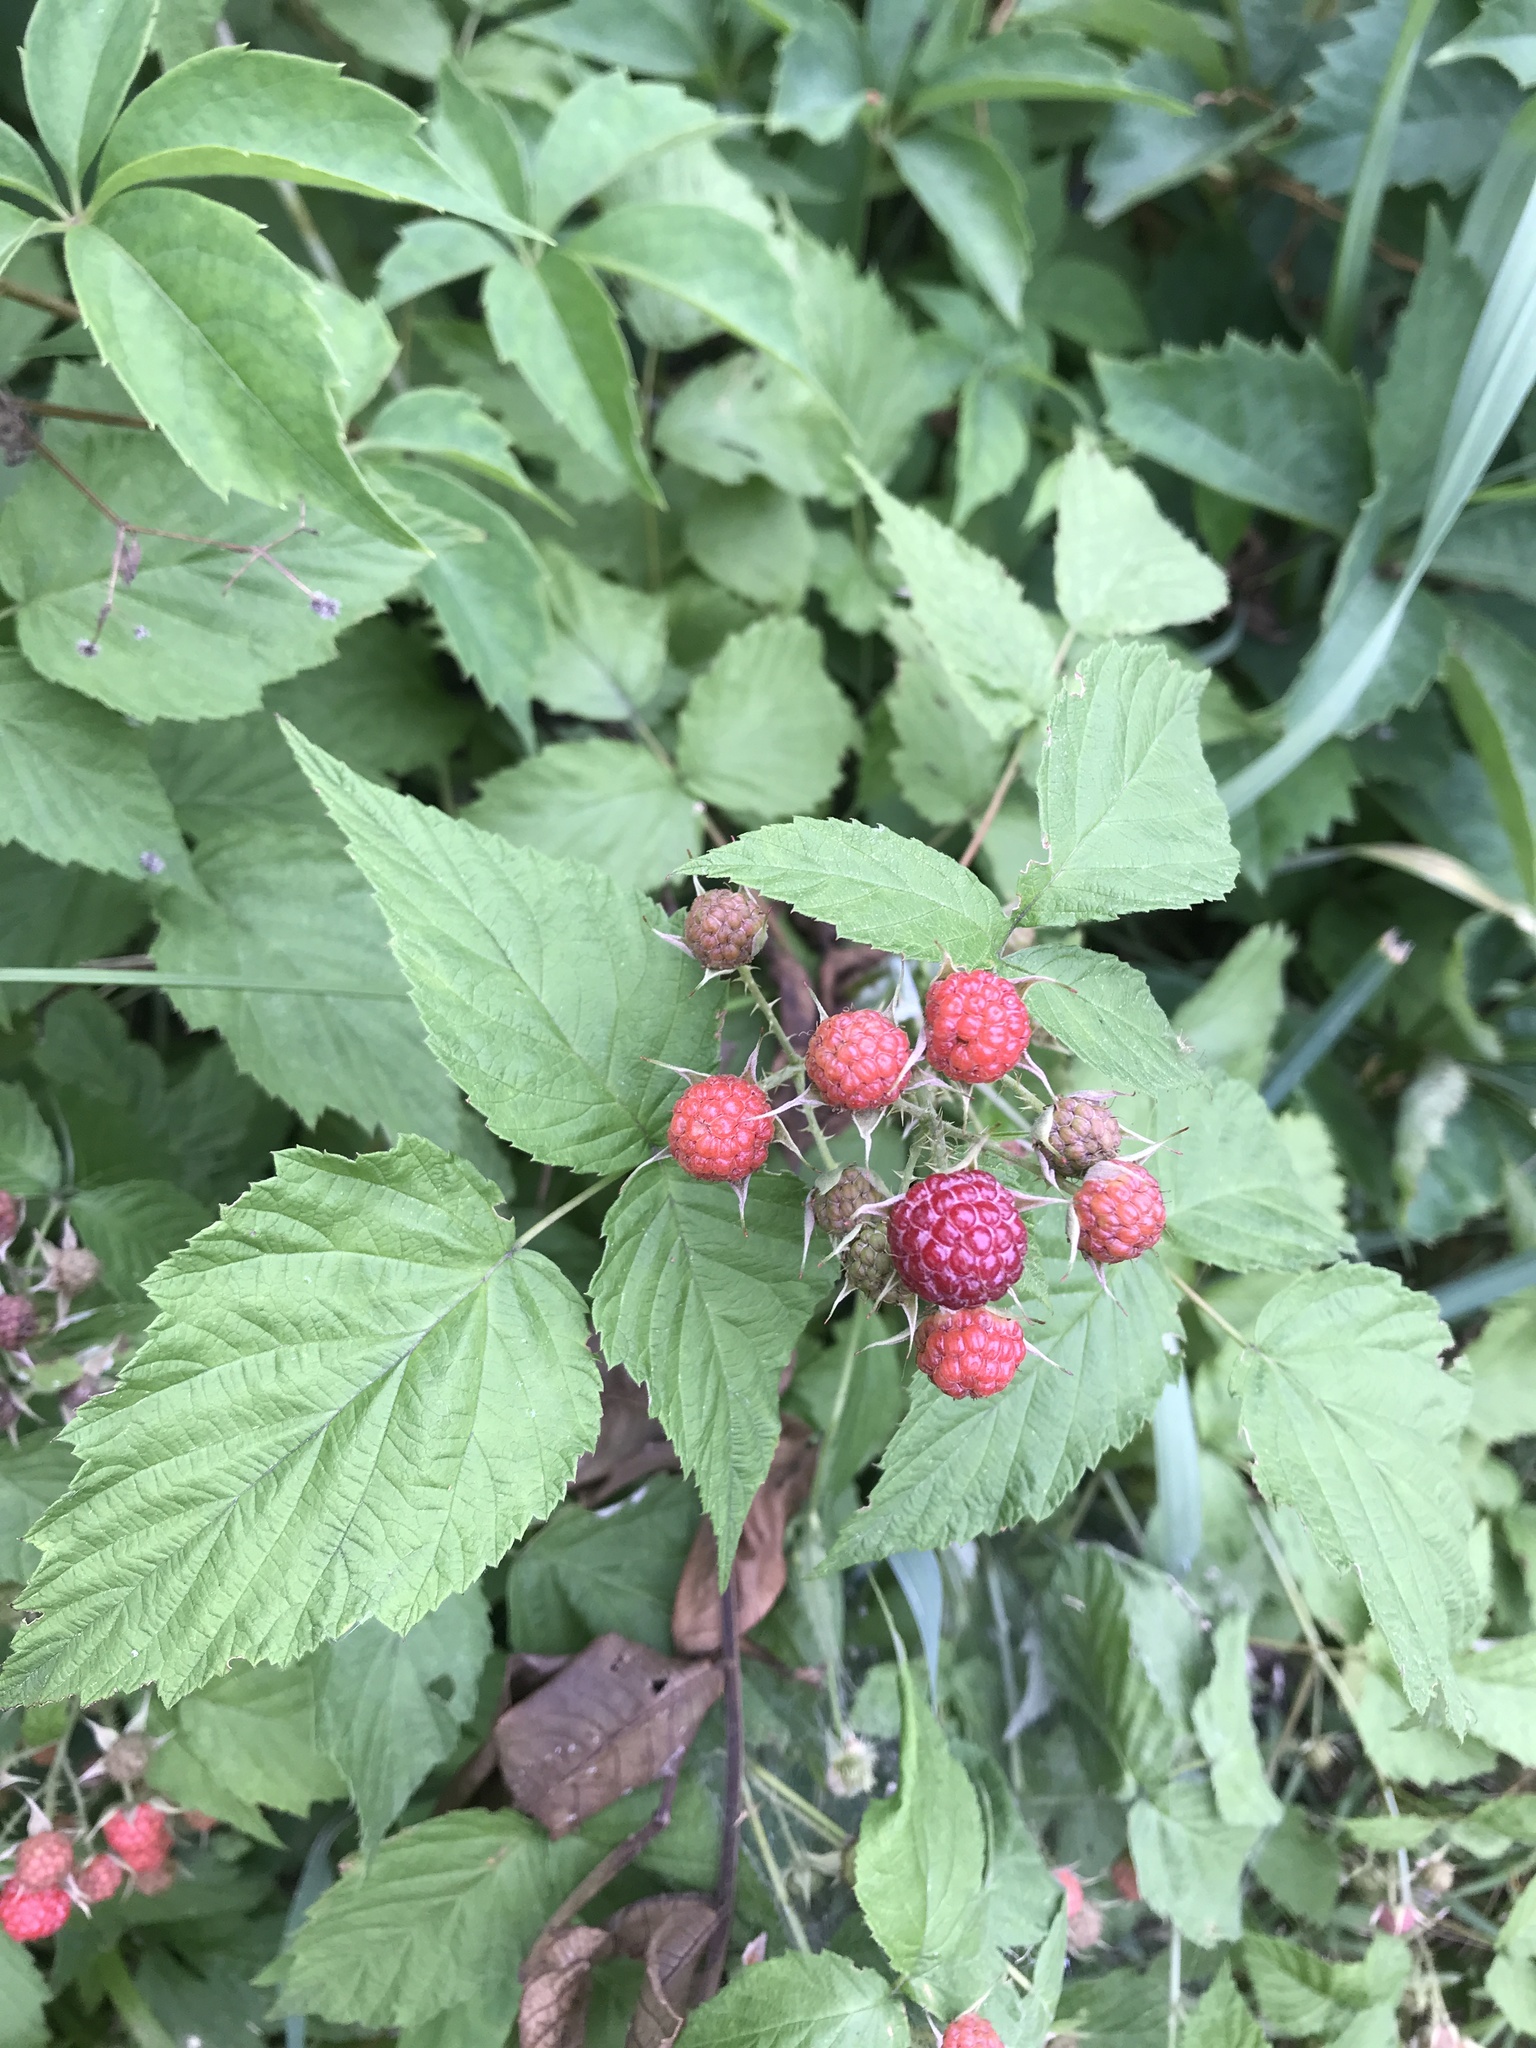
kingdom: Plantae
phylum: Tracheophyta
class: Magnoliopsida
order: Rosales
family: Rosaceae
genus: Rubus
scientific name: Rubus occidentalis
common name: Black raspberry
